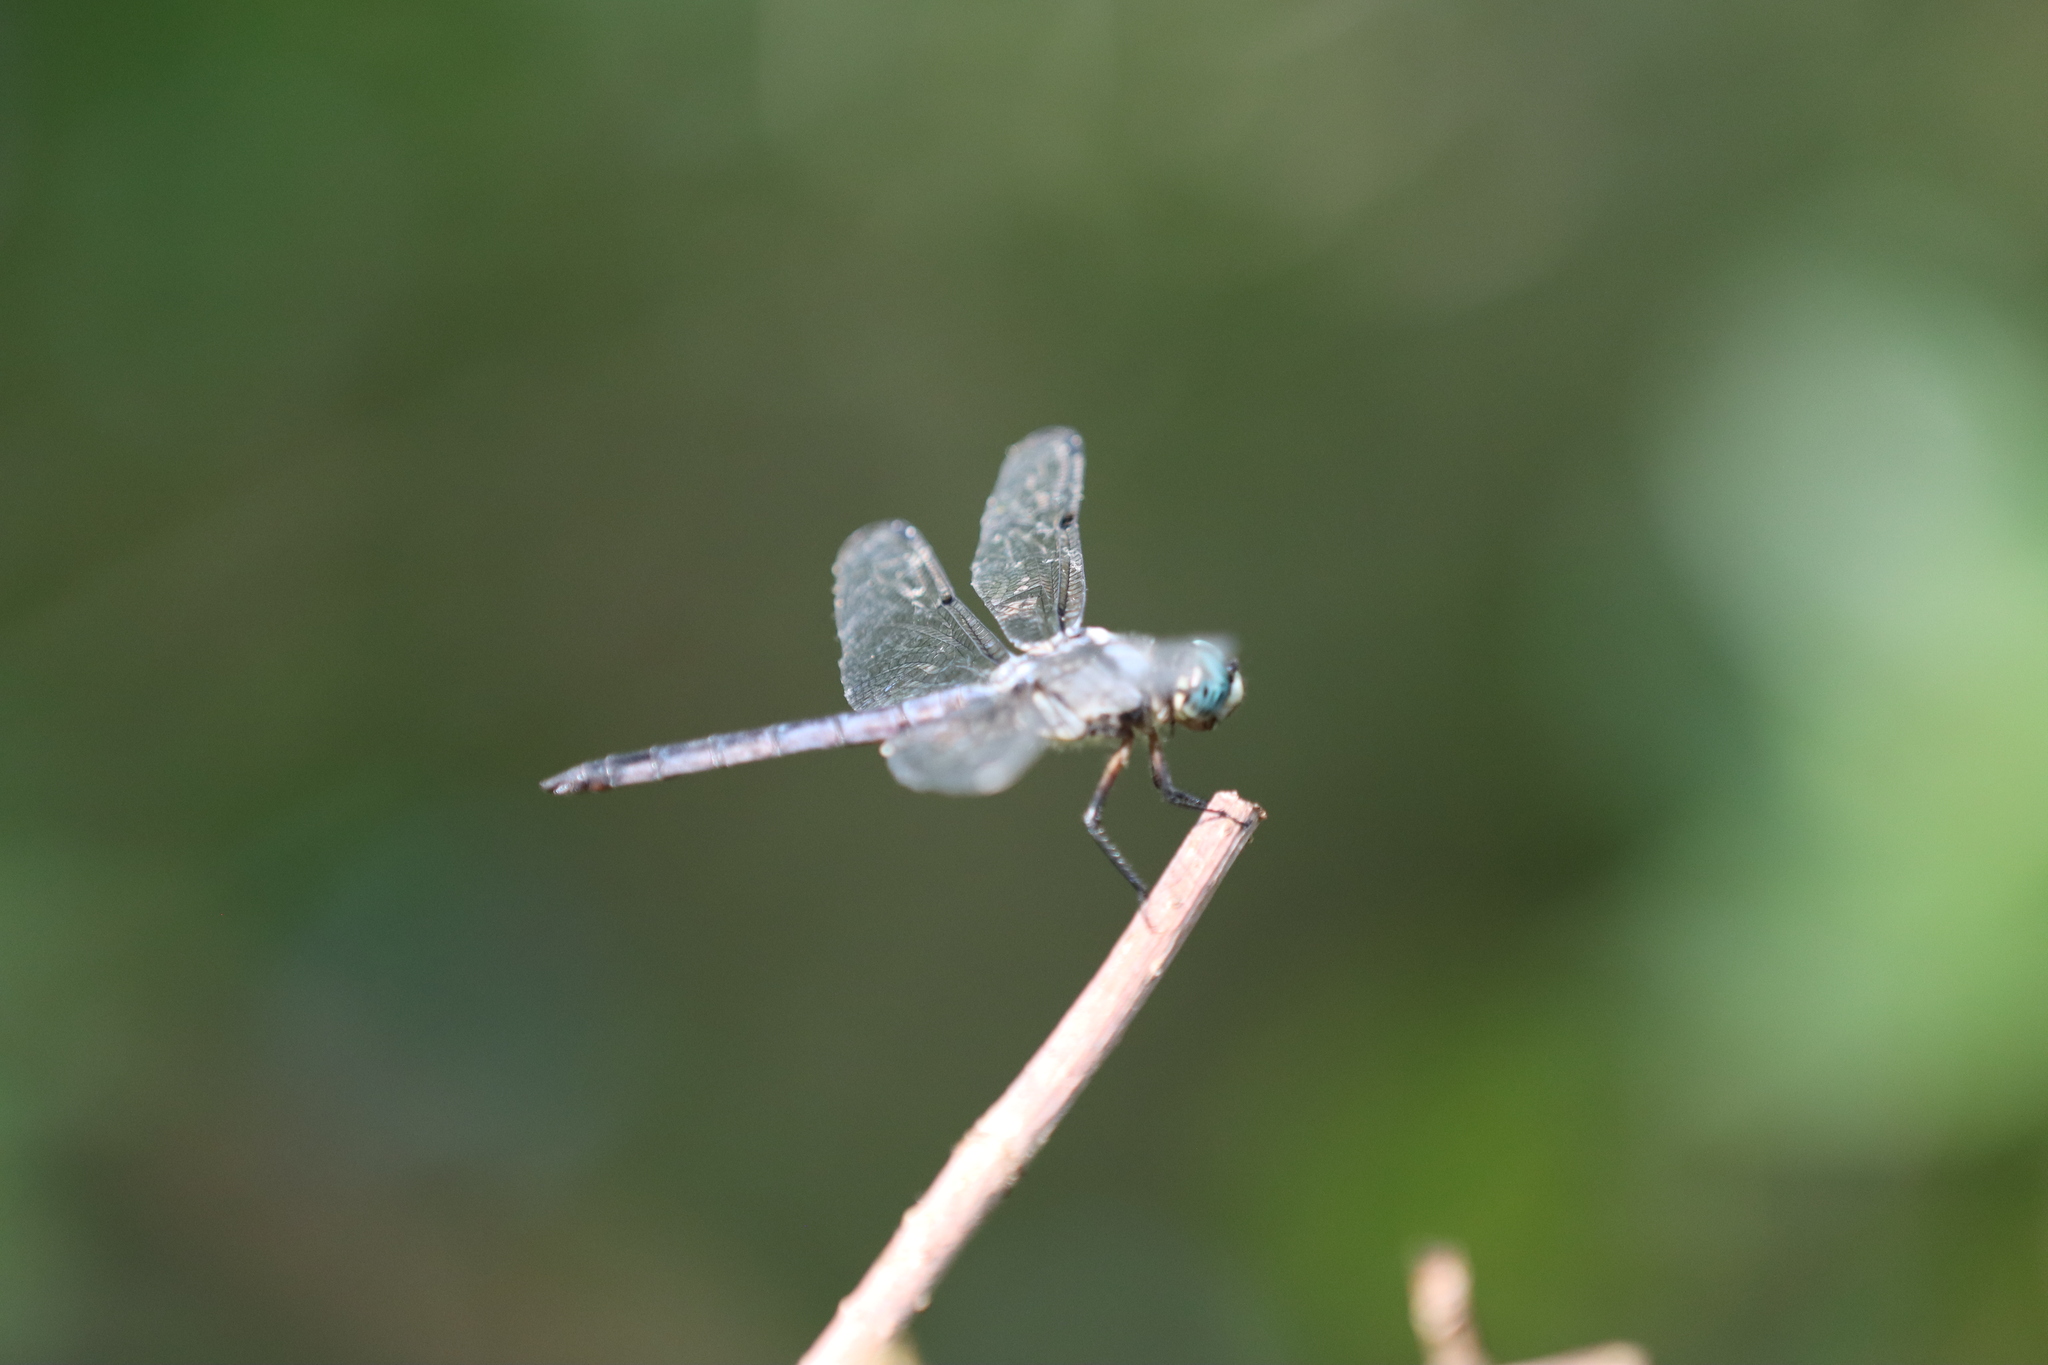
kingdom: Animalia
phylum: Arthropoda
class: Insecta
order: Odonata
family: Libellulidae
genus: Libellula
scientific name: Libellula vibrans
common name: Great blue skimmer
